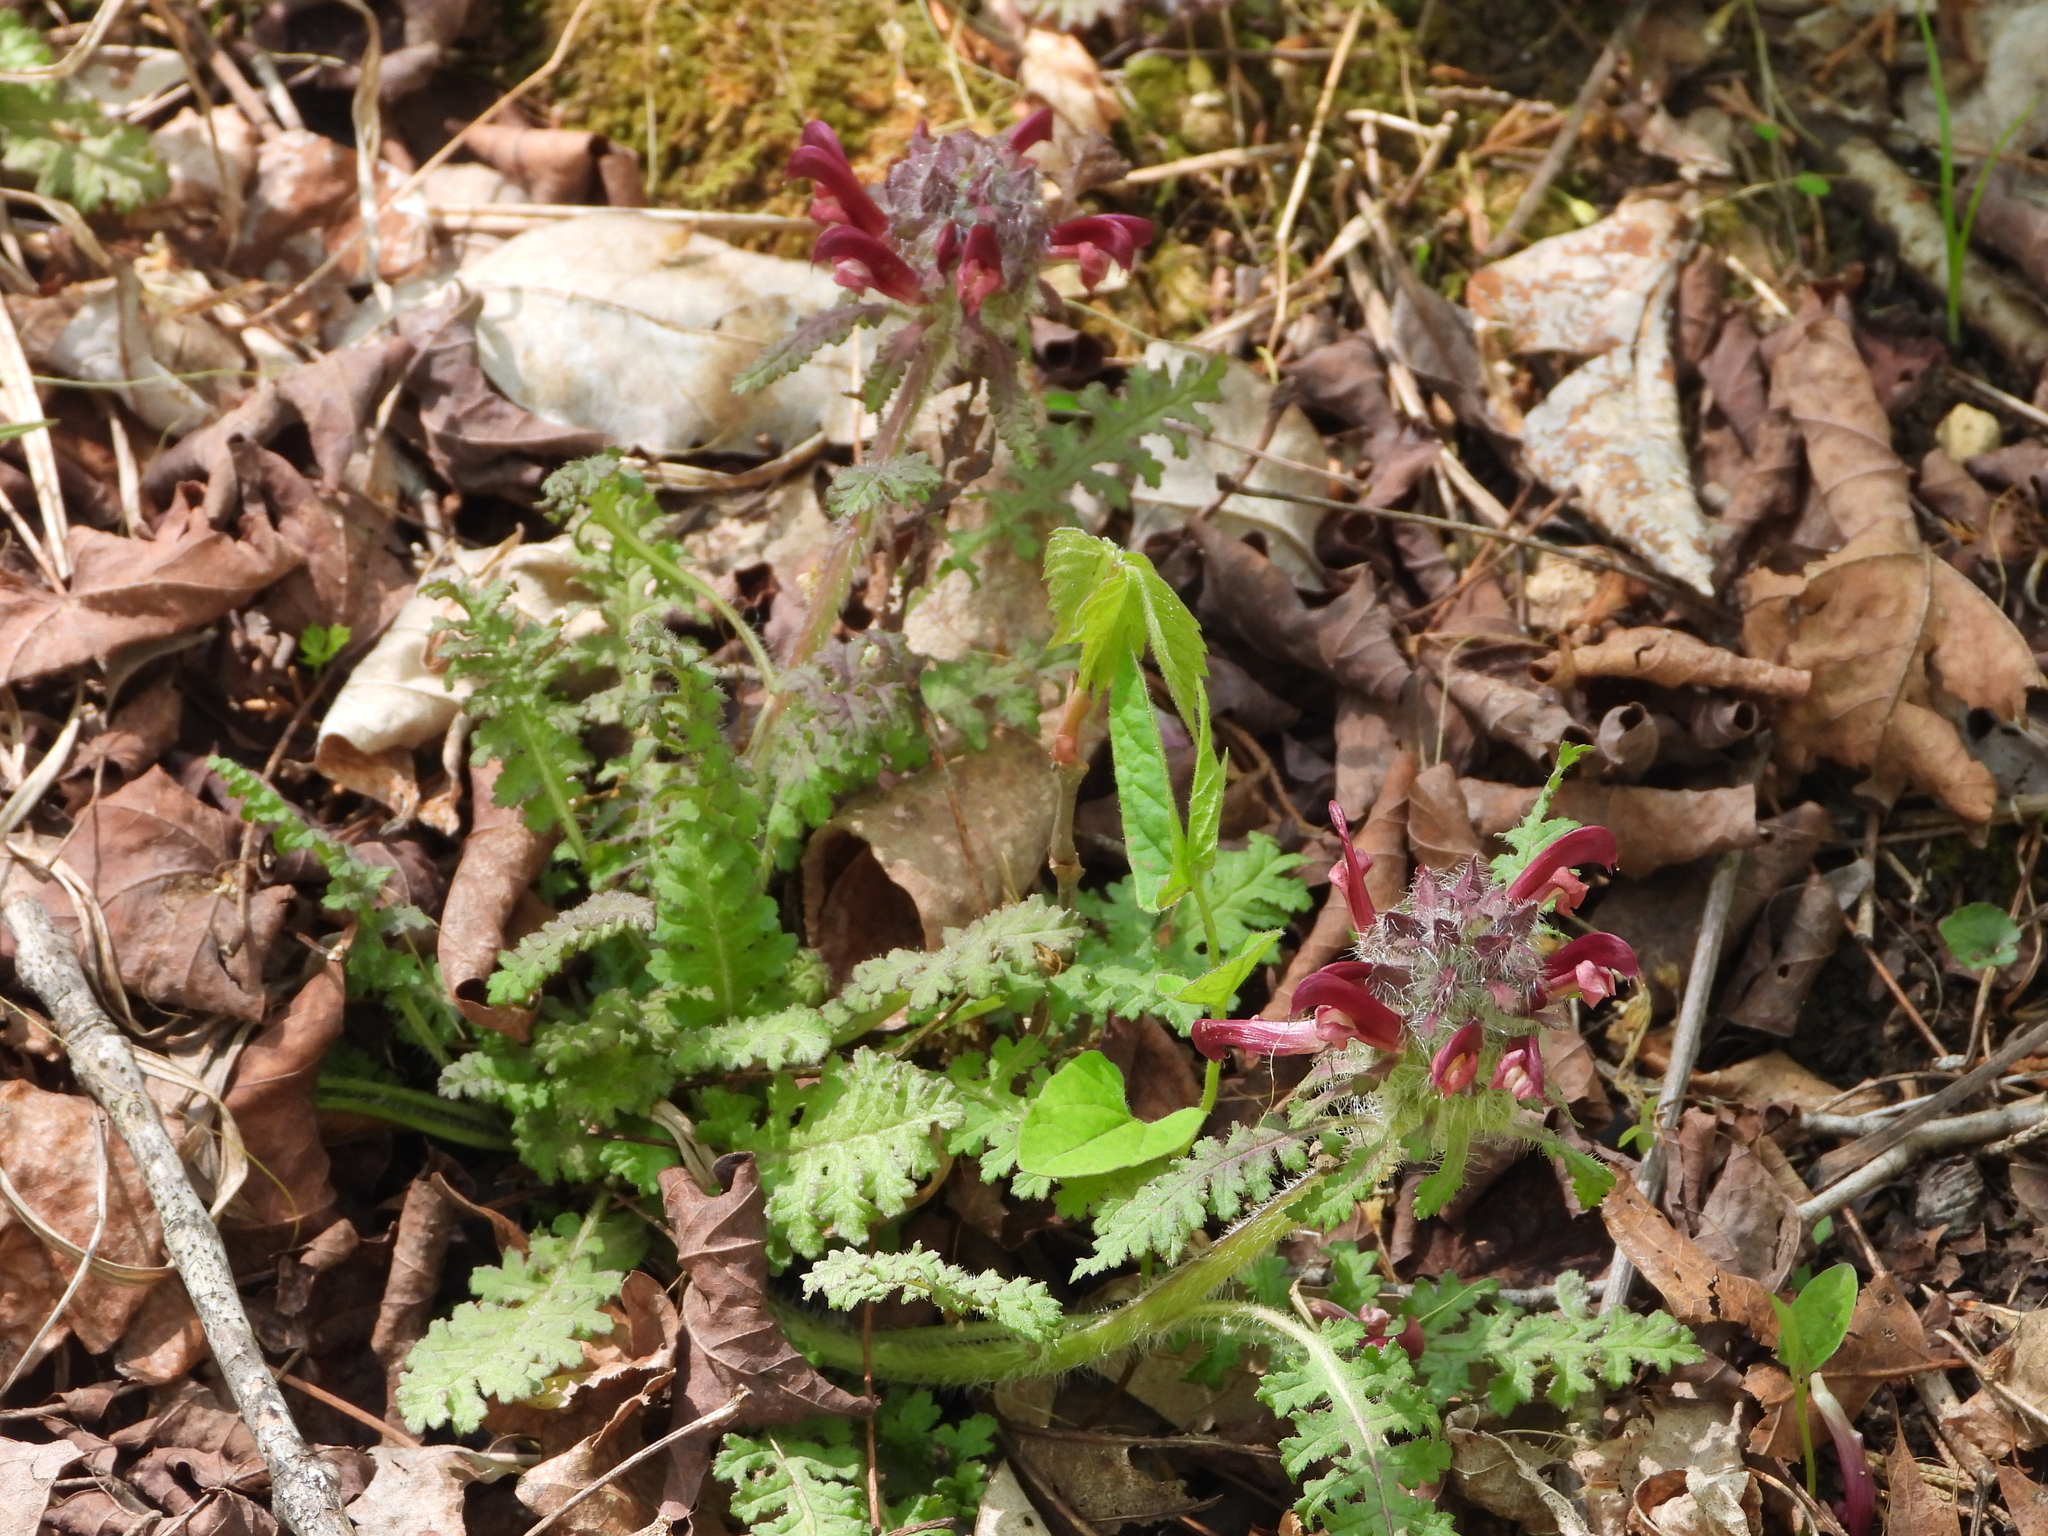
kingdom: Plantae
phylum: Tracheophyta
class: Magnoliopsida
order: Lamiales
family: Orobanchaceae
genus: Pedicularis
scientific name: Pedicularis canadensis
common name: Early lousewort
